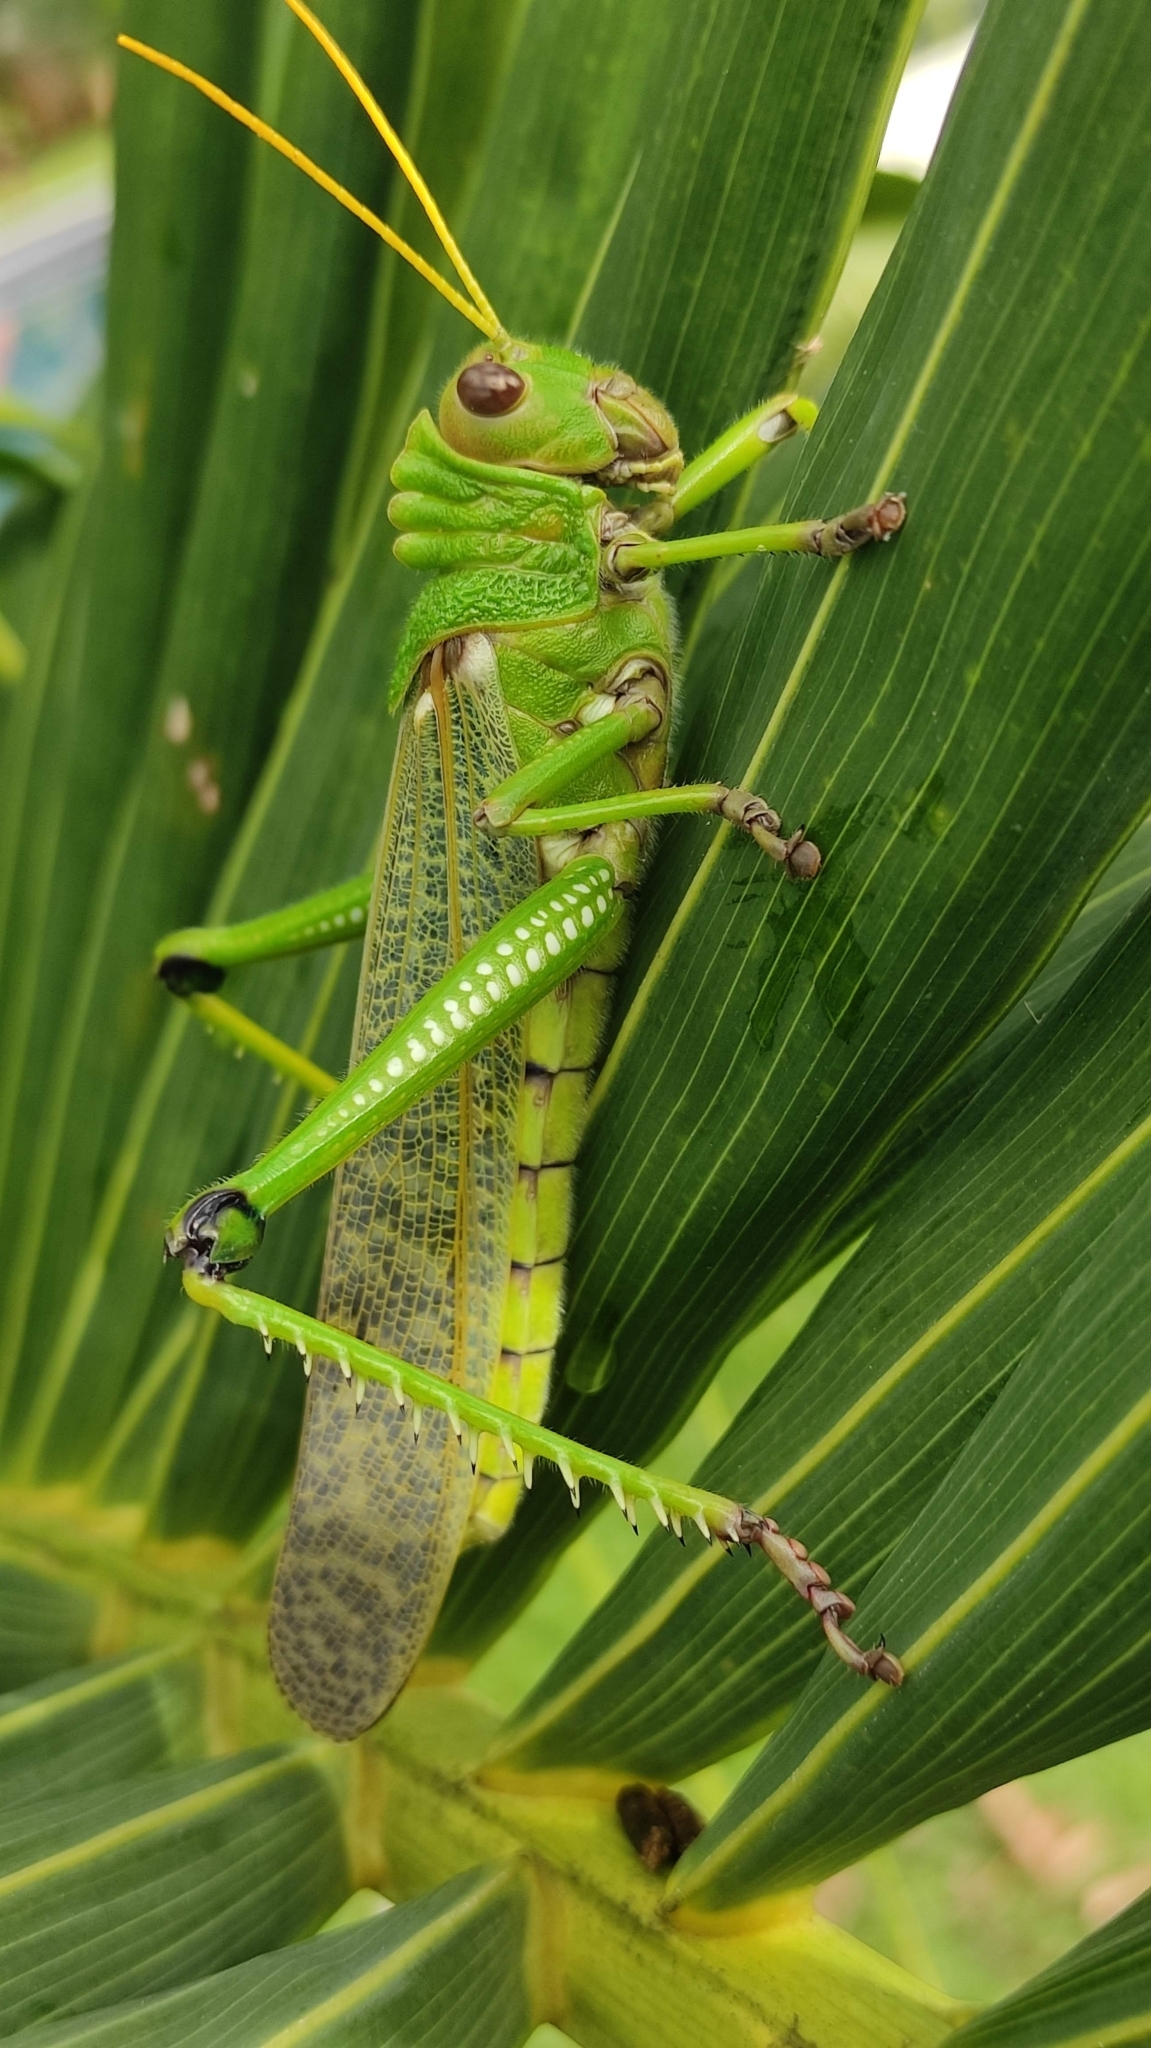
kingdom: Animalia
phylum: Arthropoda
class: Insecta
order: Orthoptera
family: Romaleidae
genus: Tropidacris
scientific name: Tropidacris collaris
